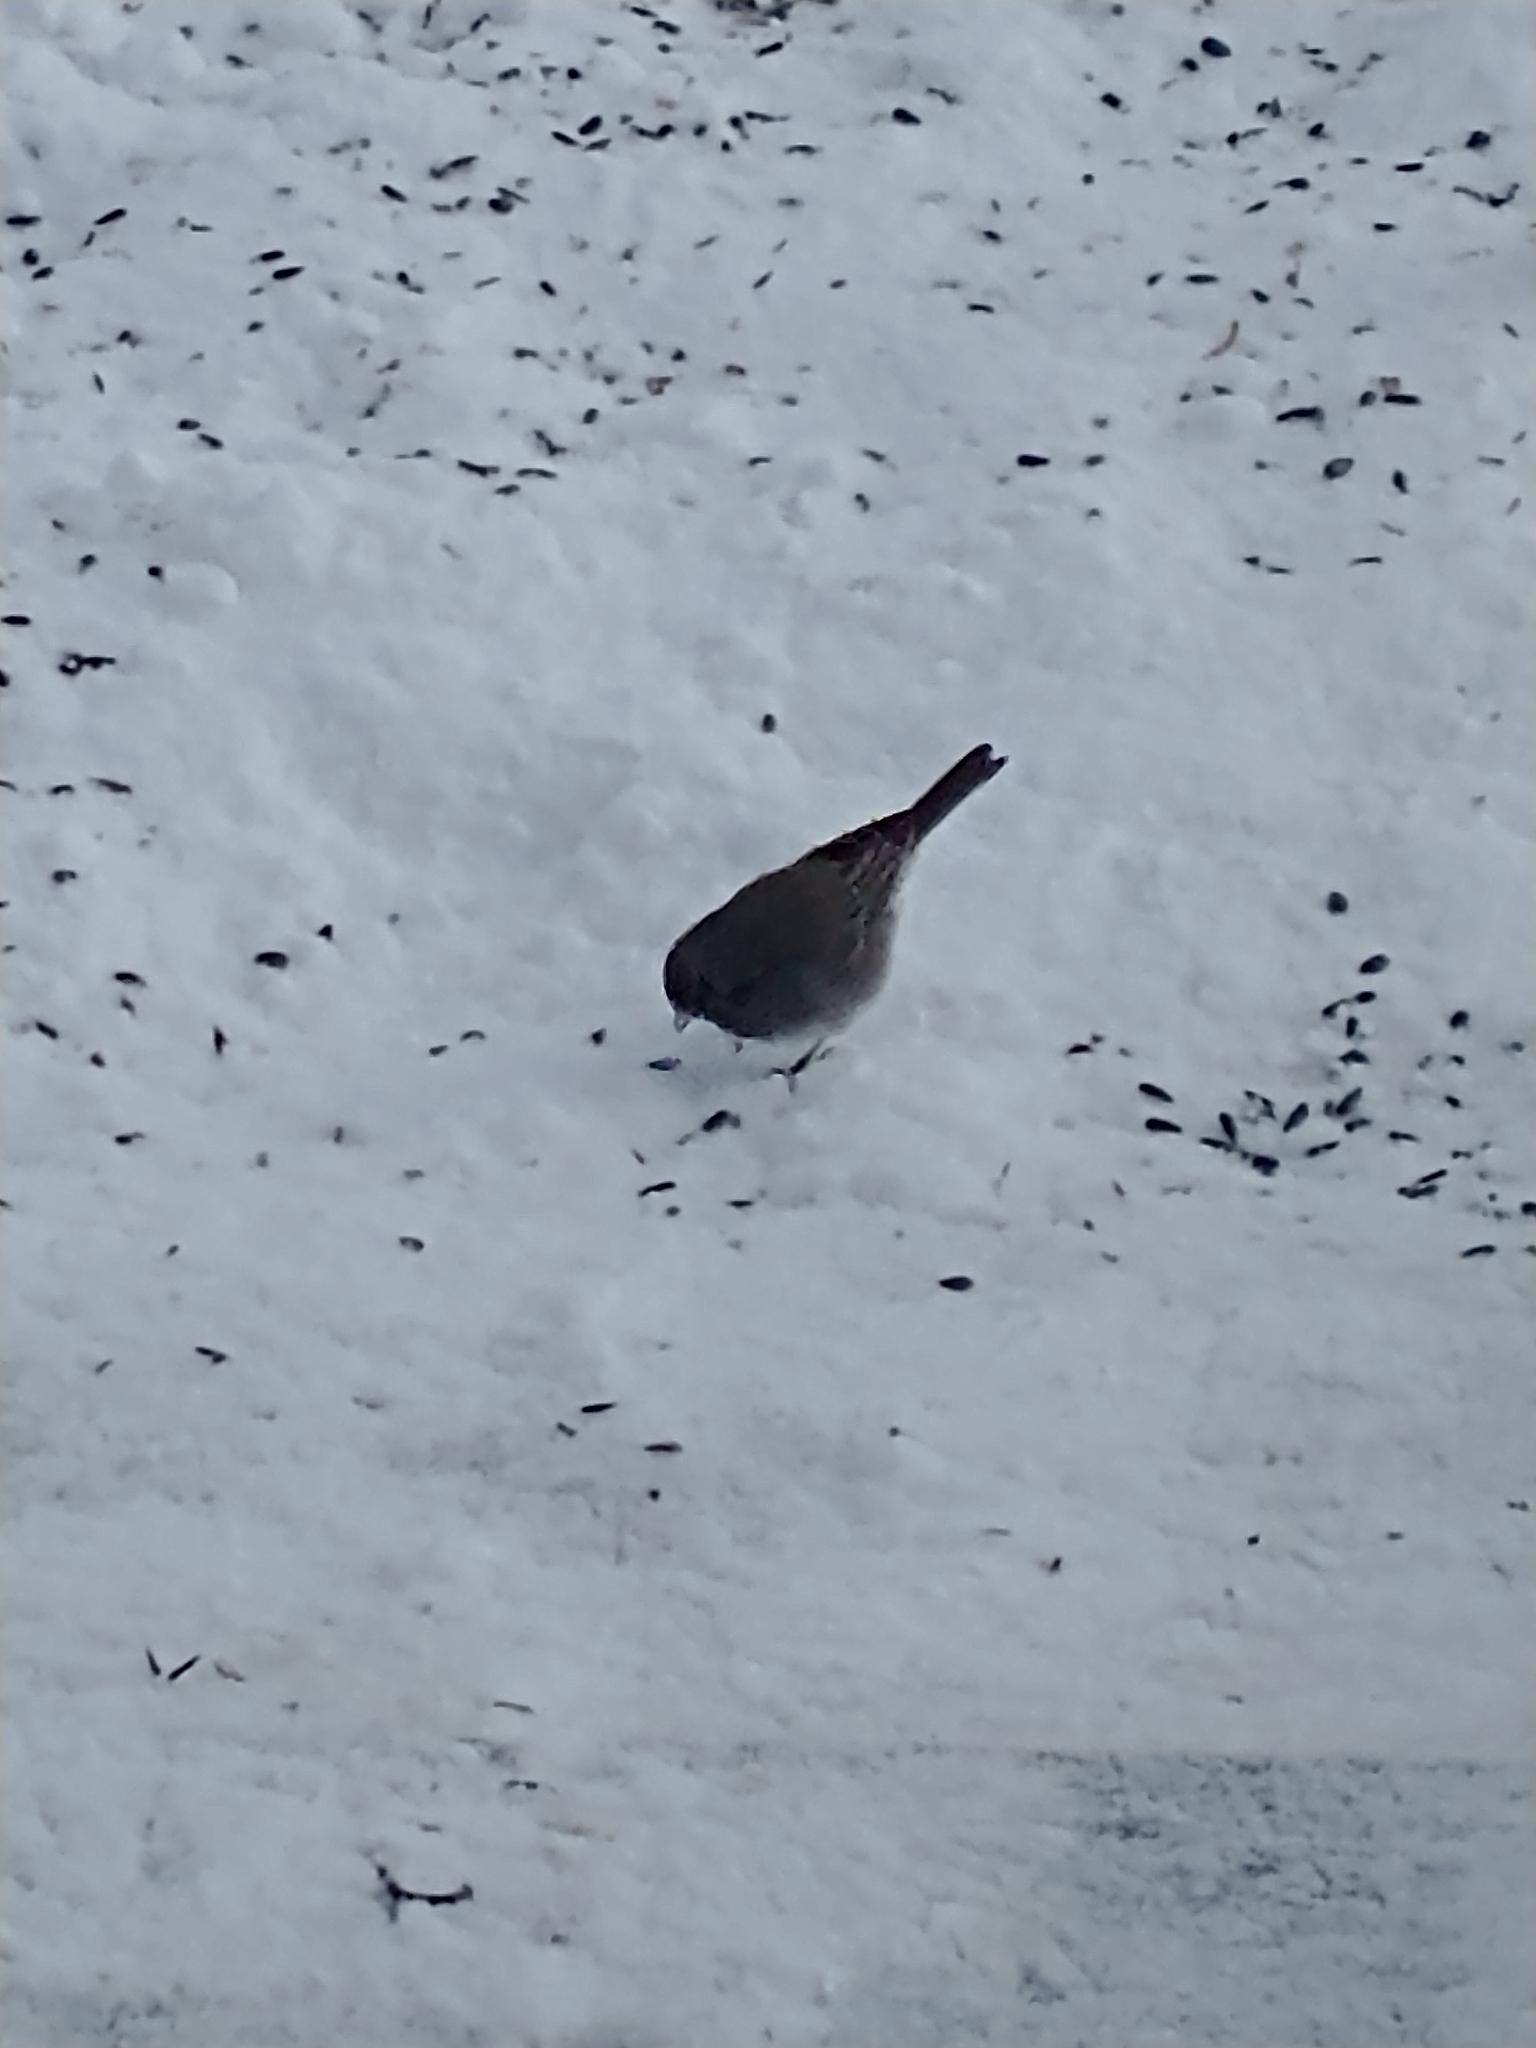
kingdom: Animalia
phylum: Chordata
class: Aves
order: Passeriformes
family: Passerellidae
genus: Junco
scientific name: Junco hyemalis
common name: Dark-eyed junco
